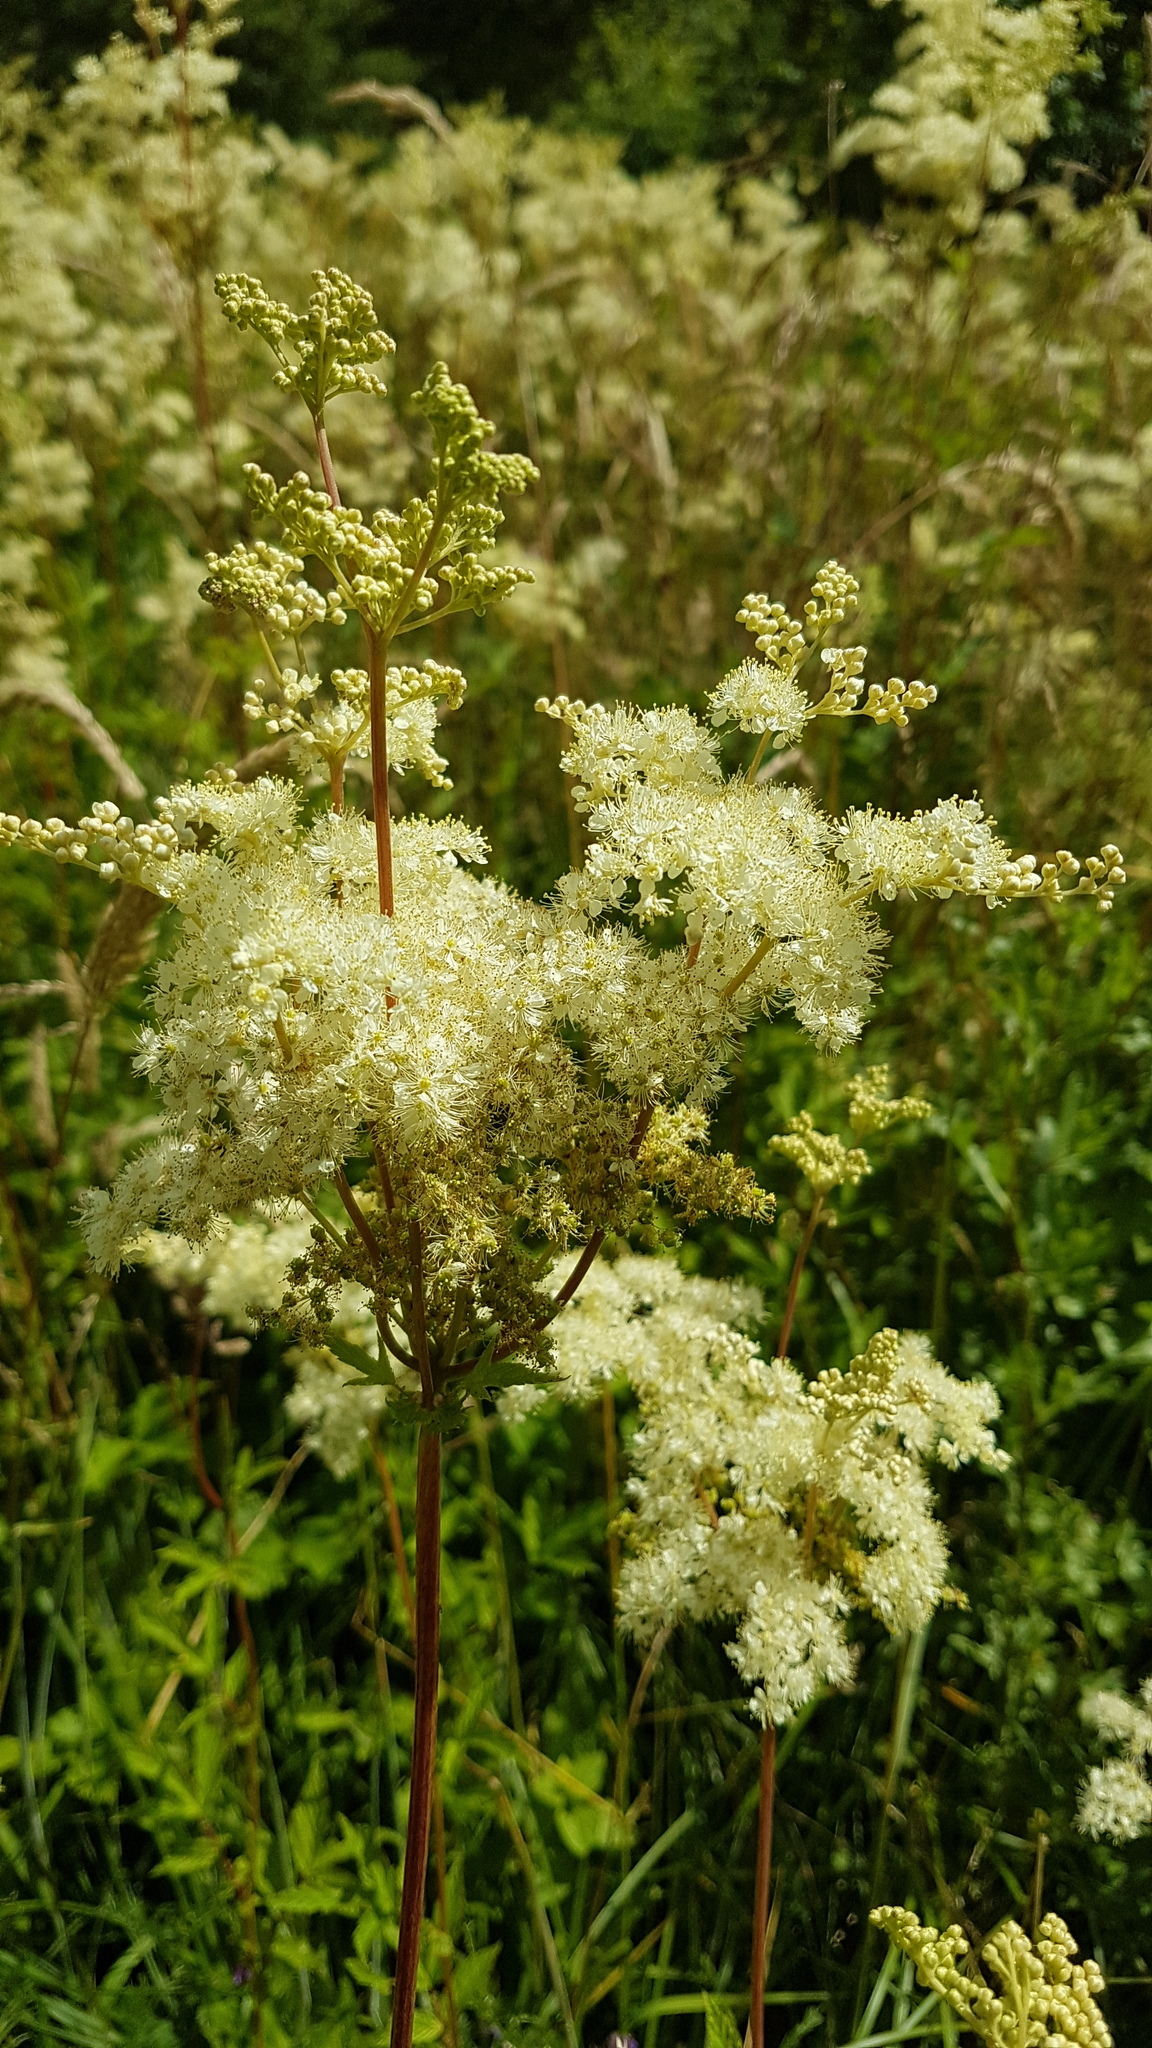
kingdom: Plantae
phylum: Tracheophyta
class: Magnoliopsida
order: Rosales
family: Rosaceae
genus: Filipendula
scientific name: Filipendula ulmaria
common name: Meadowsweet
